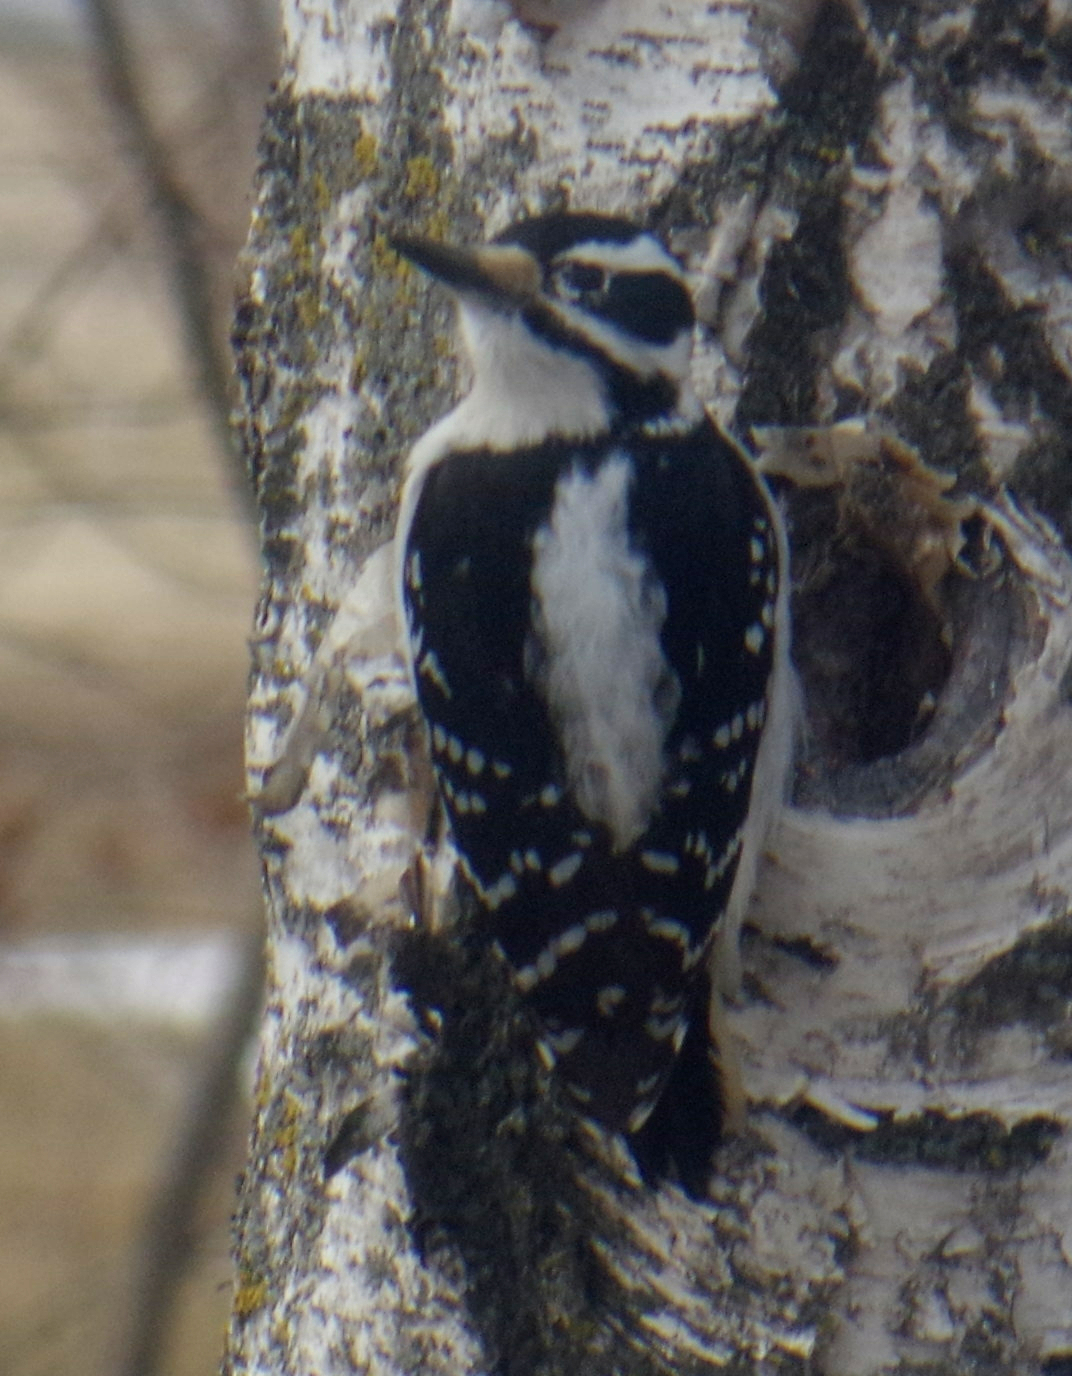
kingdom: Animalia
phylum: Chordata
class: Aves
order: Piciformes
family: Picidae
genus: Leuconotopicus
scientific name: Leuconotopicus villosus
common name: Hairy woodpecker
